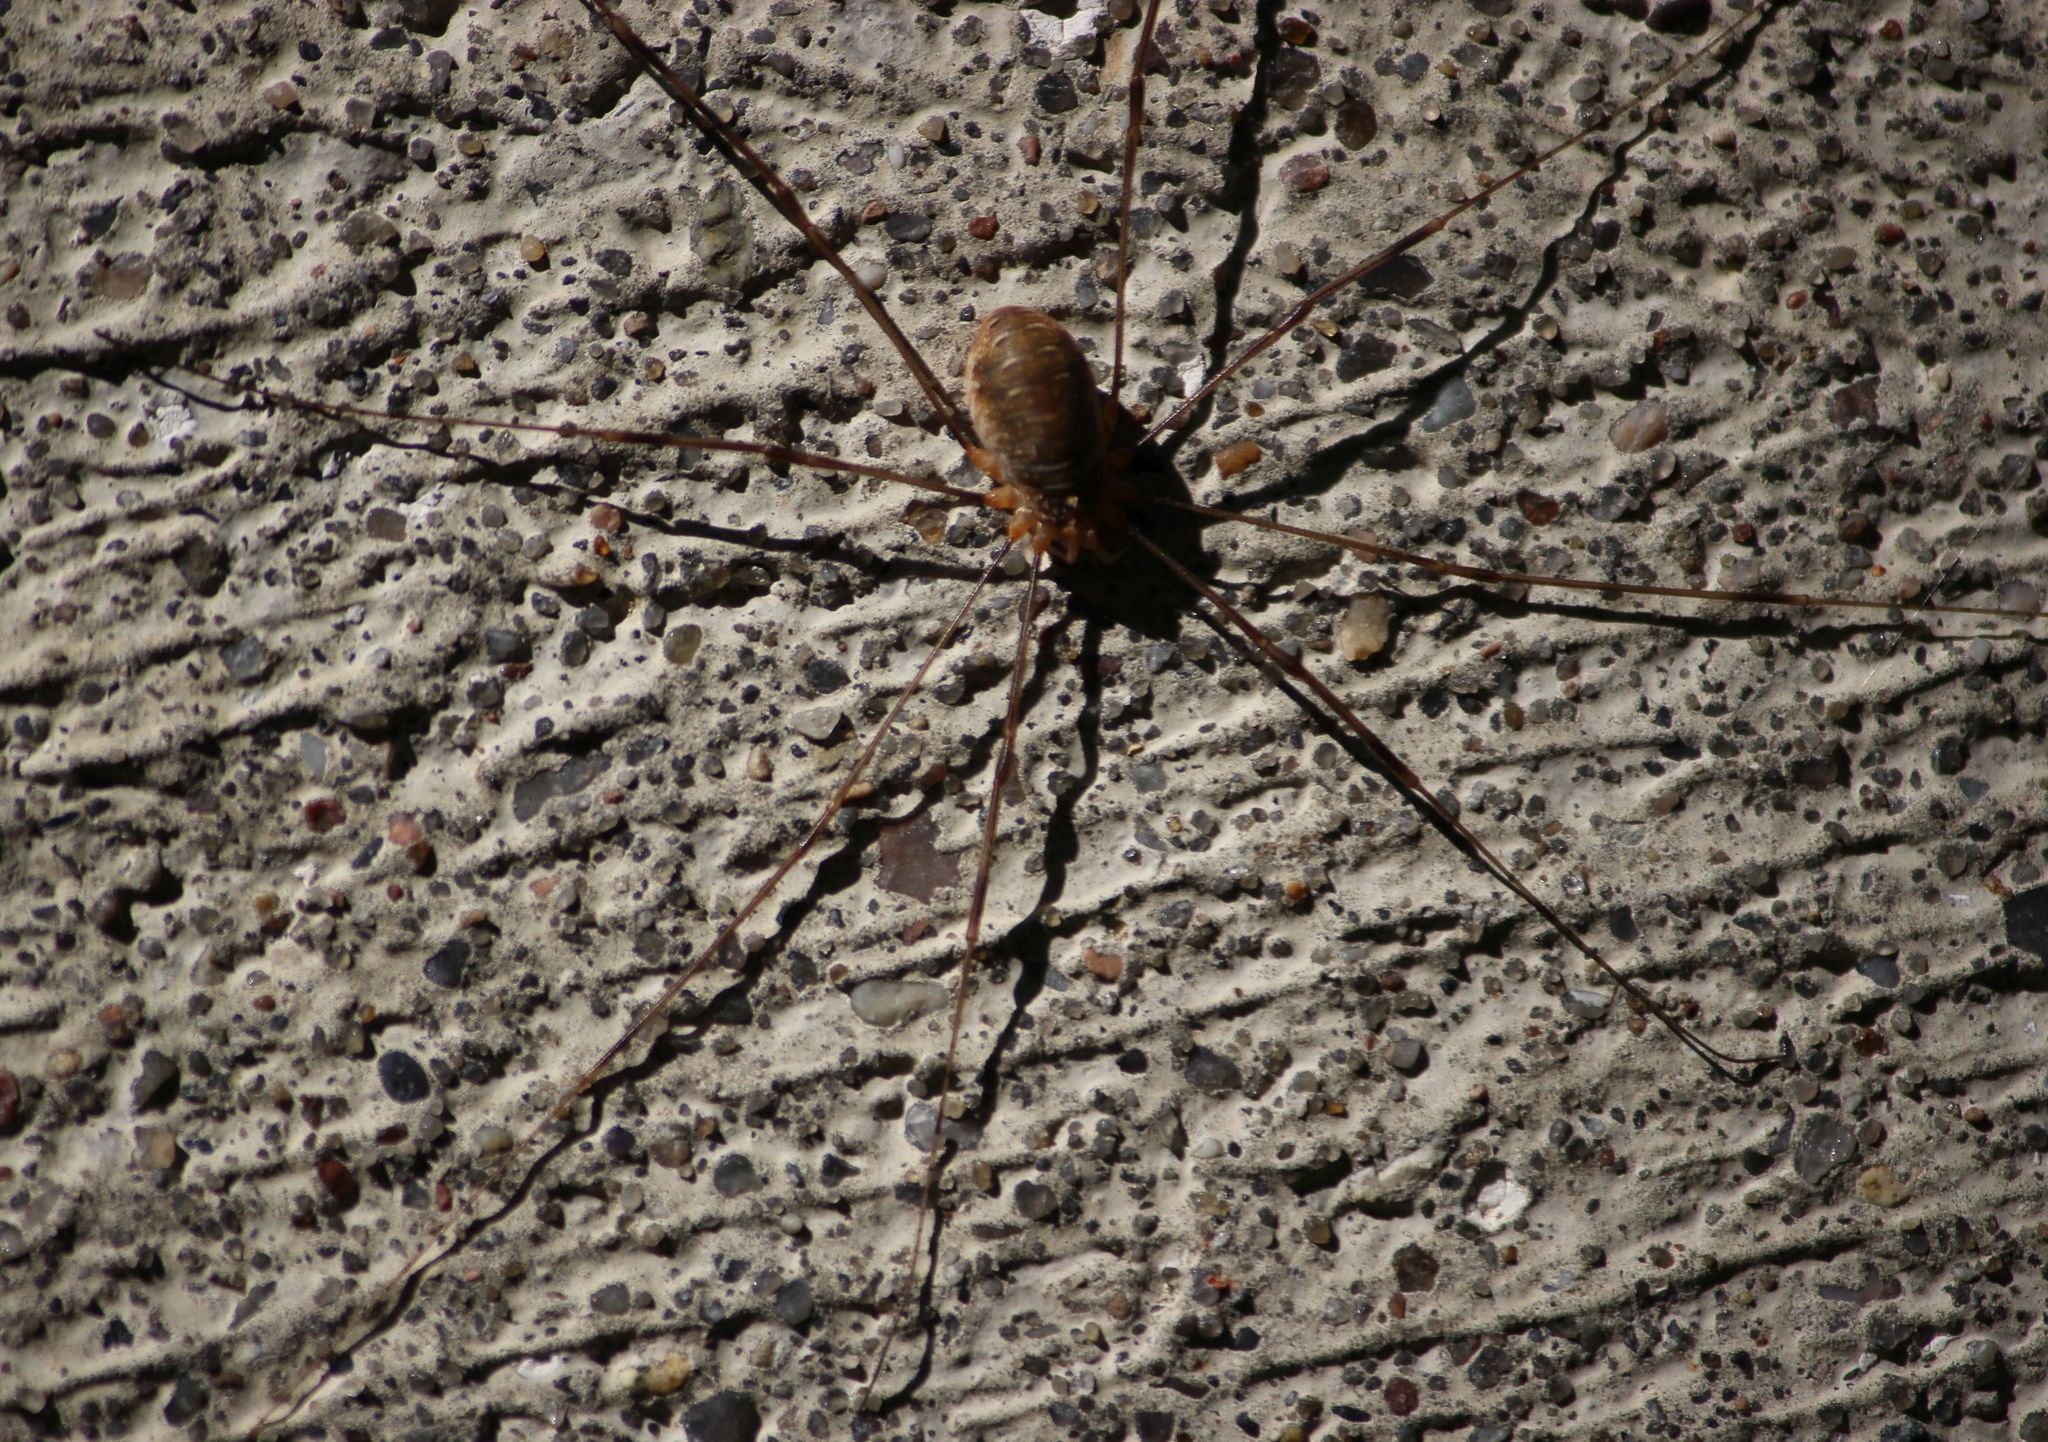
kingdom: Animalia
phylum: Arthropoda
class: Arachnida
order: Opiliones
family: Phalangiidae
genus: Opilio
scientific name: Opilio canestrinii
